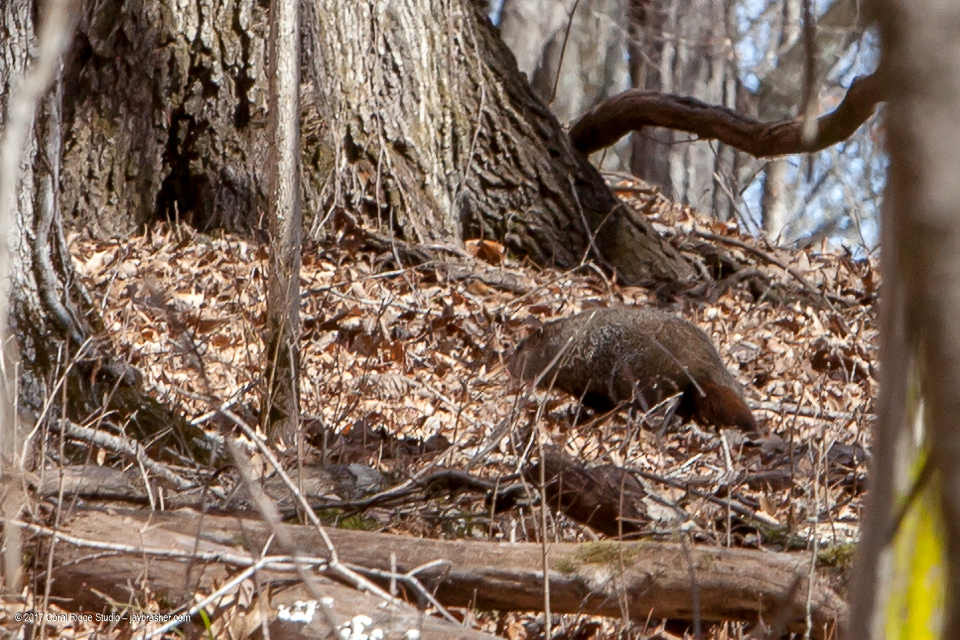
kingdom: Animalia
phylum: Chordata
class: Mammalia
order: Rodentia
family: Sciuridae
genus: Marmota
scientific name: Marmota monax
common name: Groundhog
